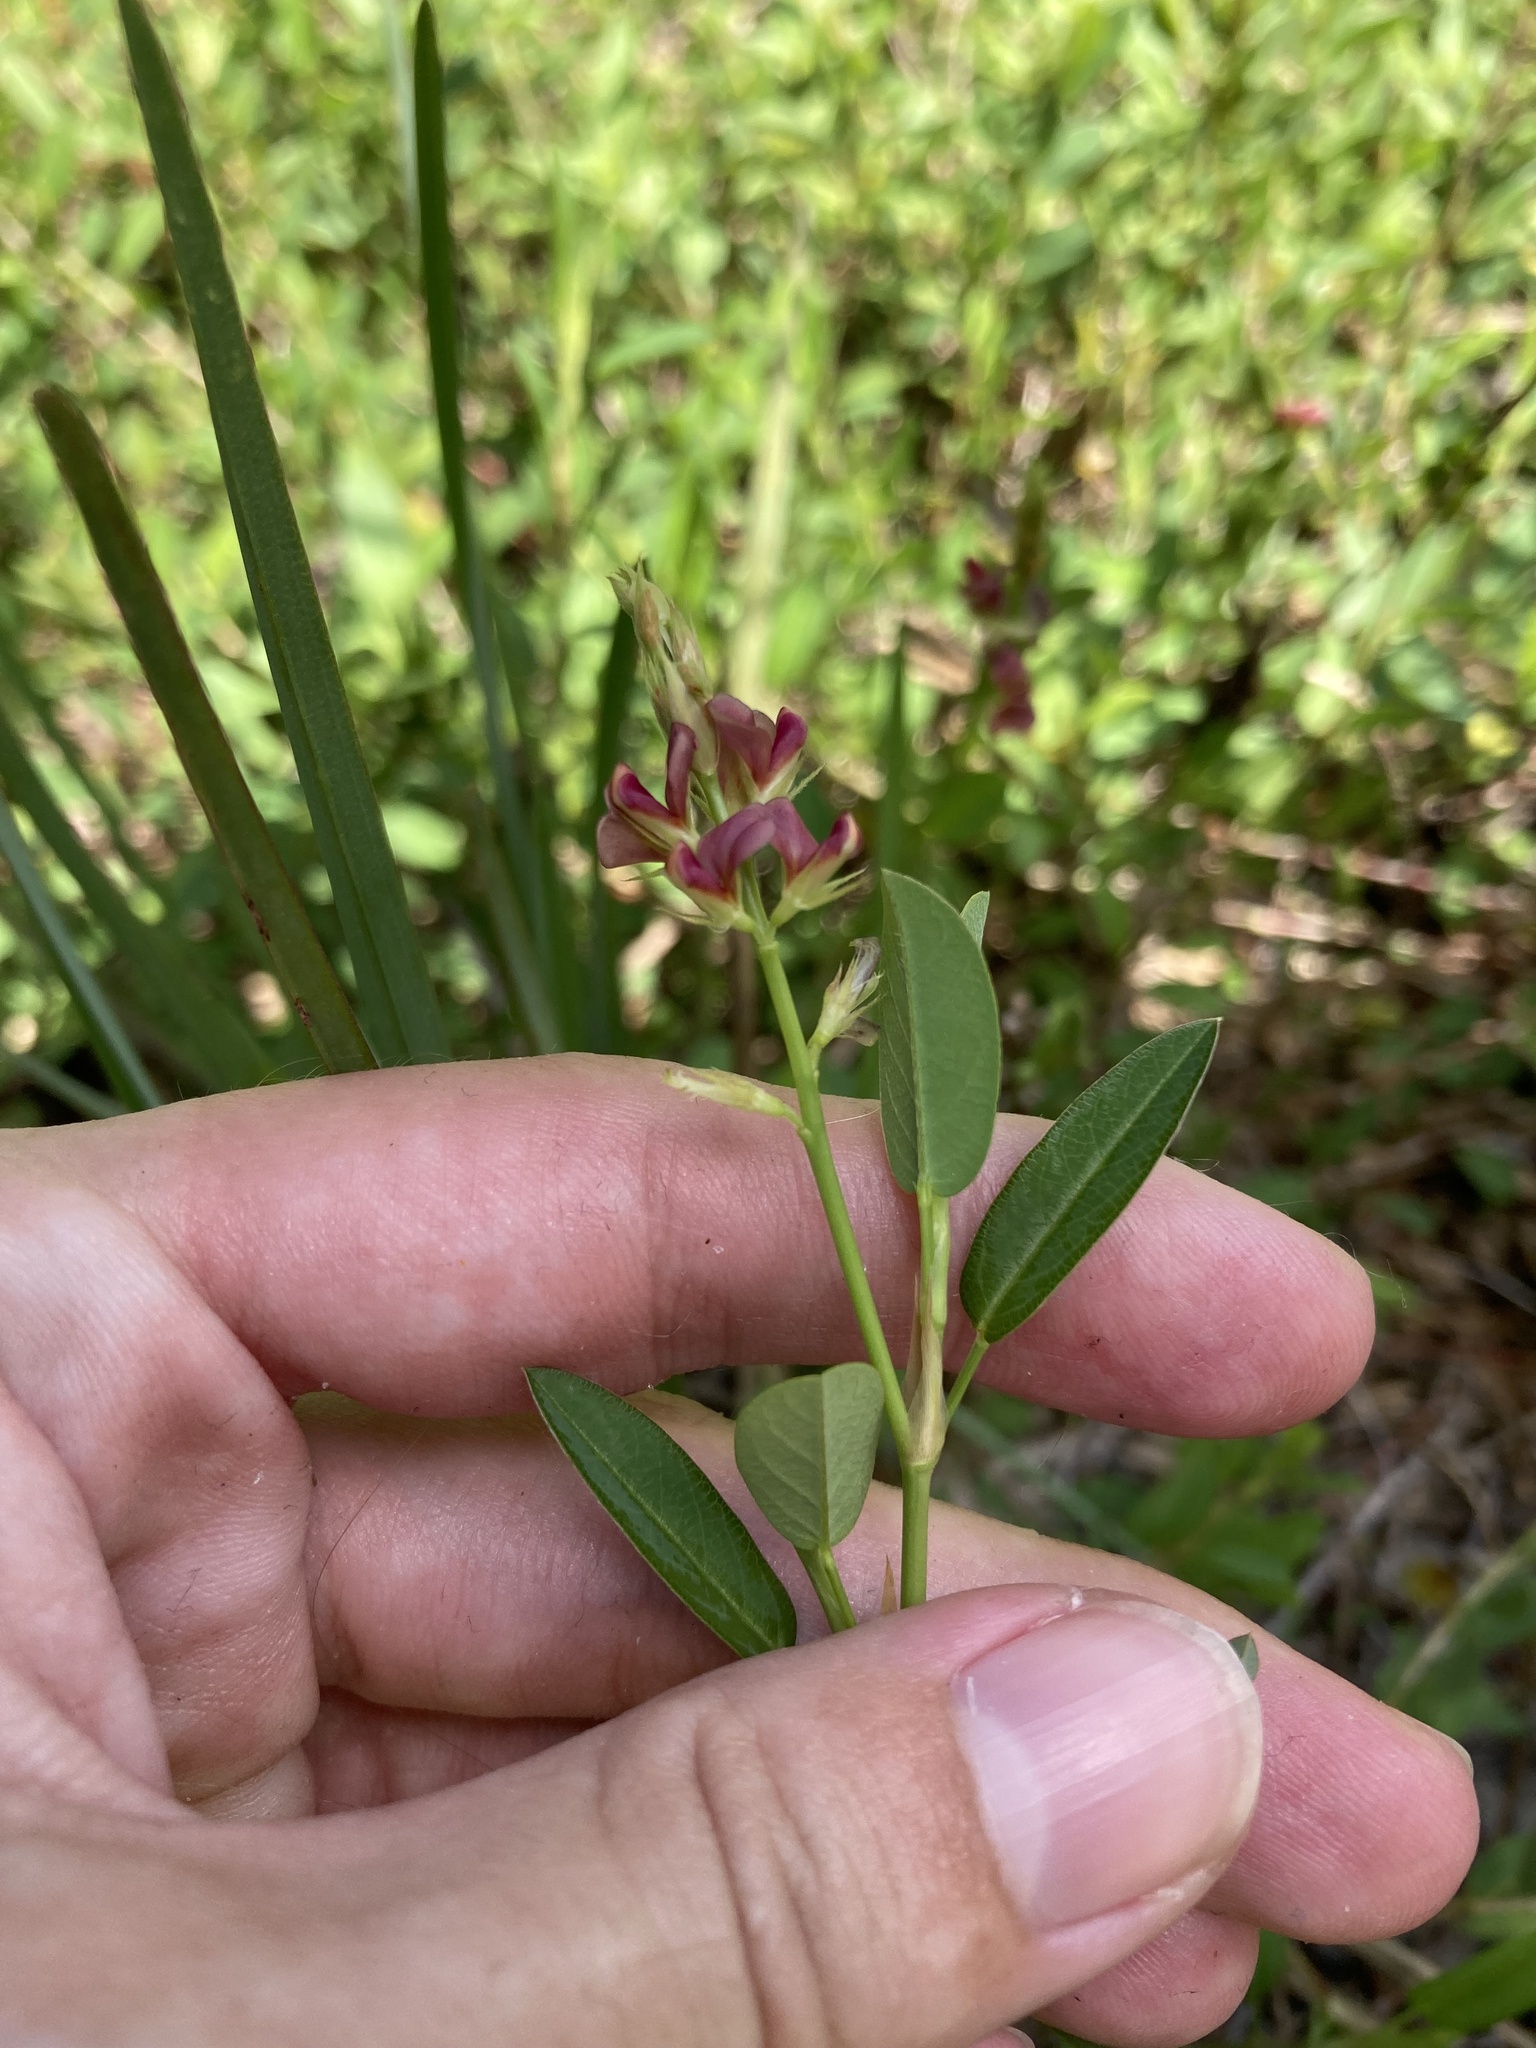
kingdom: Plantae
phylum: Tracheophyta
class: Magnoliopsida
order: Fabales
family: Fabaceae
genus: Alysicarpus
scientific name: Alysicarpus vaginalis
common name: White moneywort
